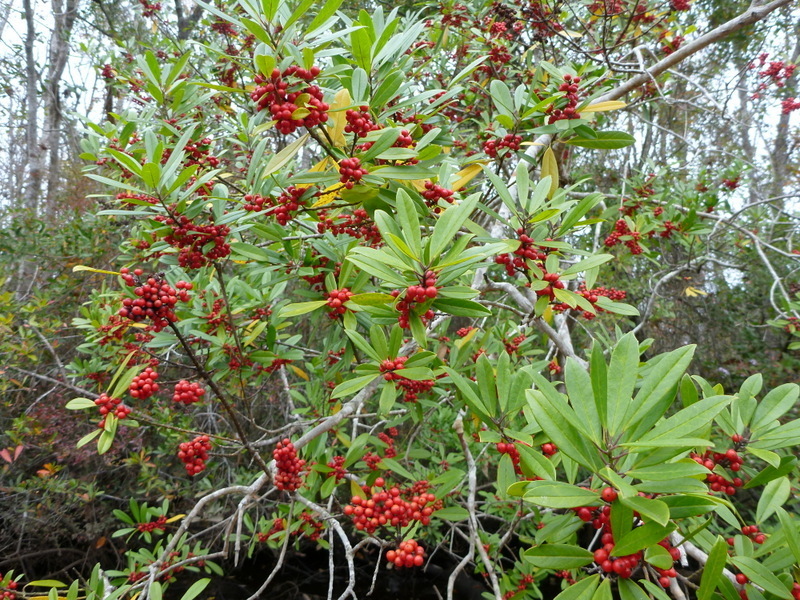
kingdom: Plantae
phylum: Tracheophyta
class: Magnoliopsida
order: Aquifoliales
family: Aquifoliaceae
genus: Ilex
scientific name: Ilex cassine
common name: Dahoon
